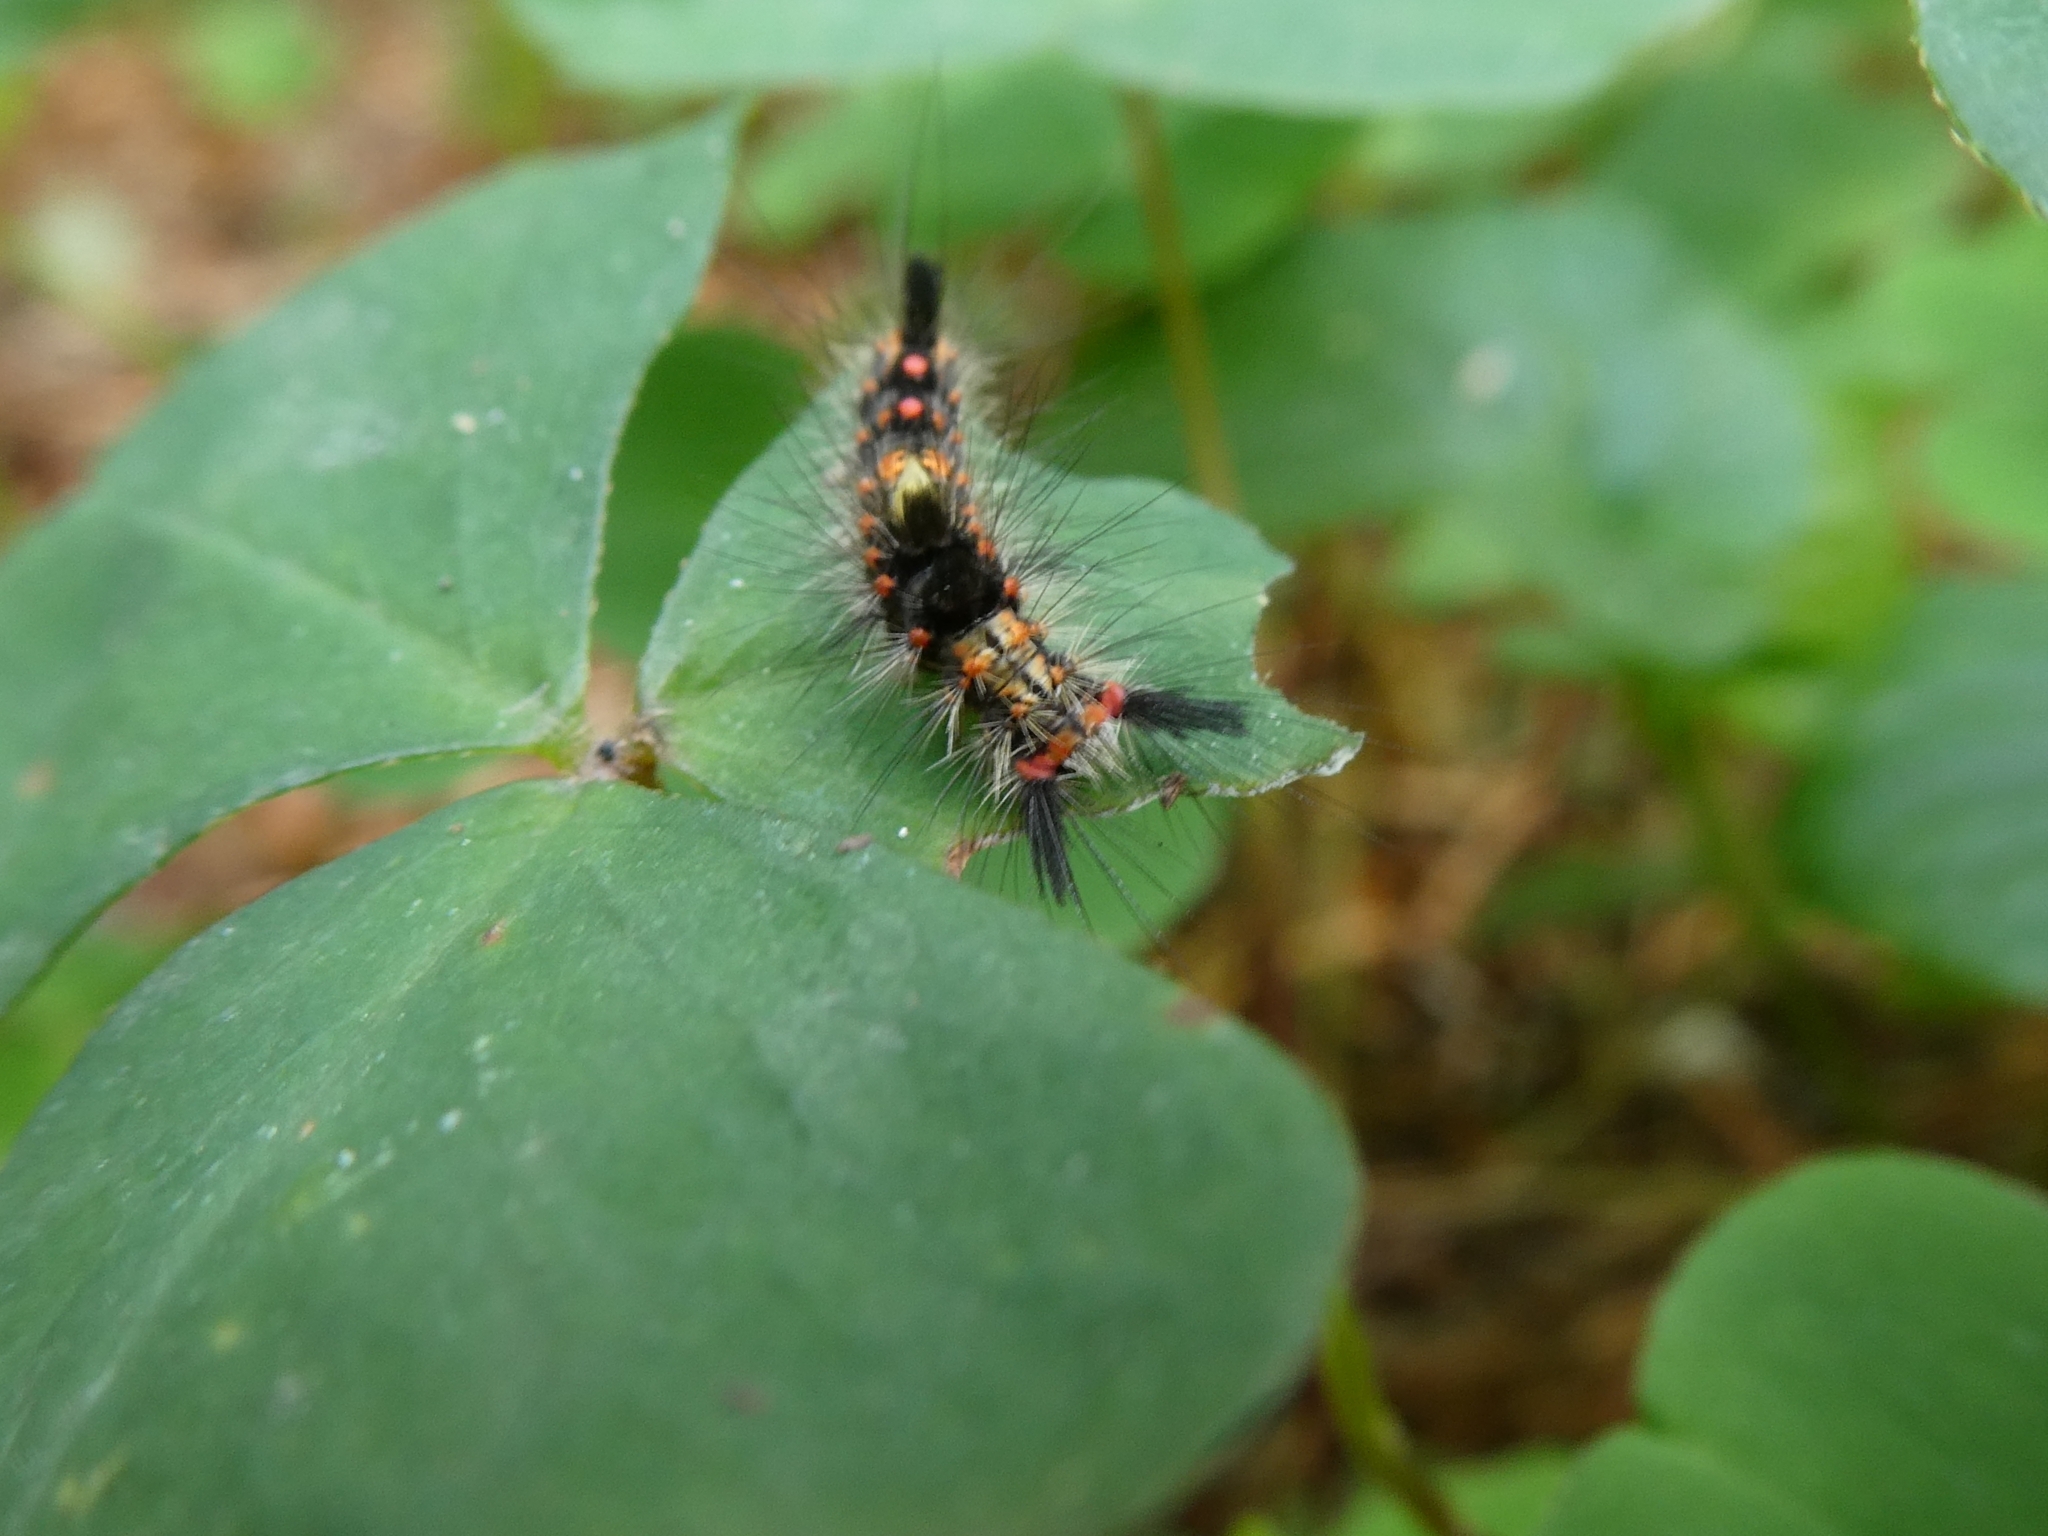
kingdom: Animalia
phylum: Arthropoda
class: Insecta
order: Lepidoptera
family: Erebidae
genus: Orgyia
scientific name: Orgyia antiqua
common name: Vapourer
